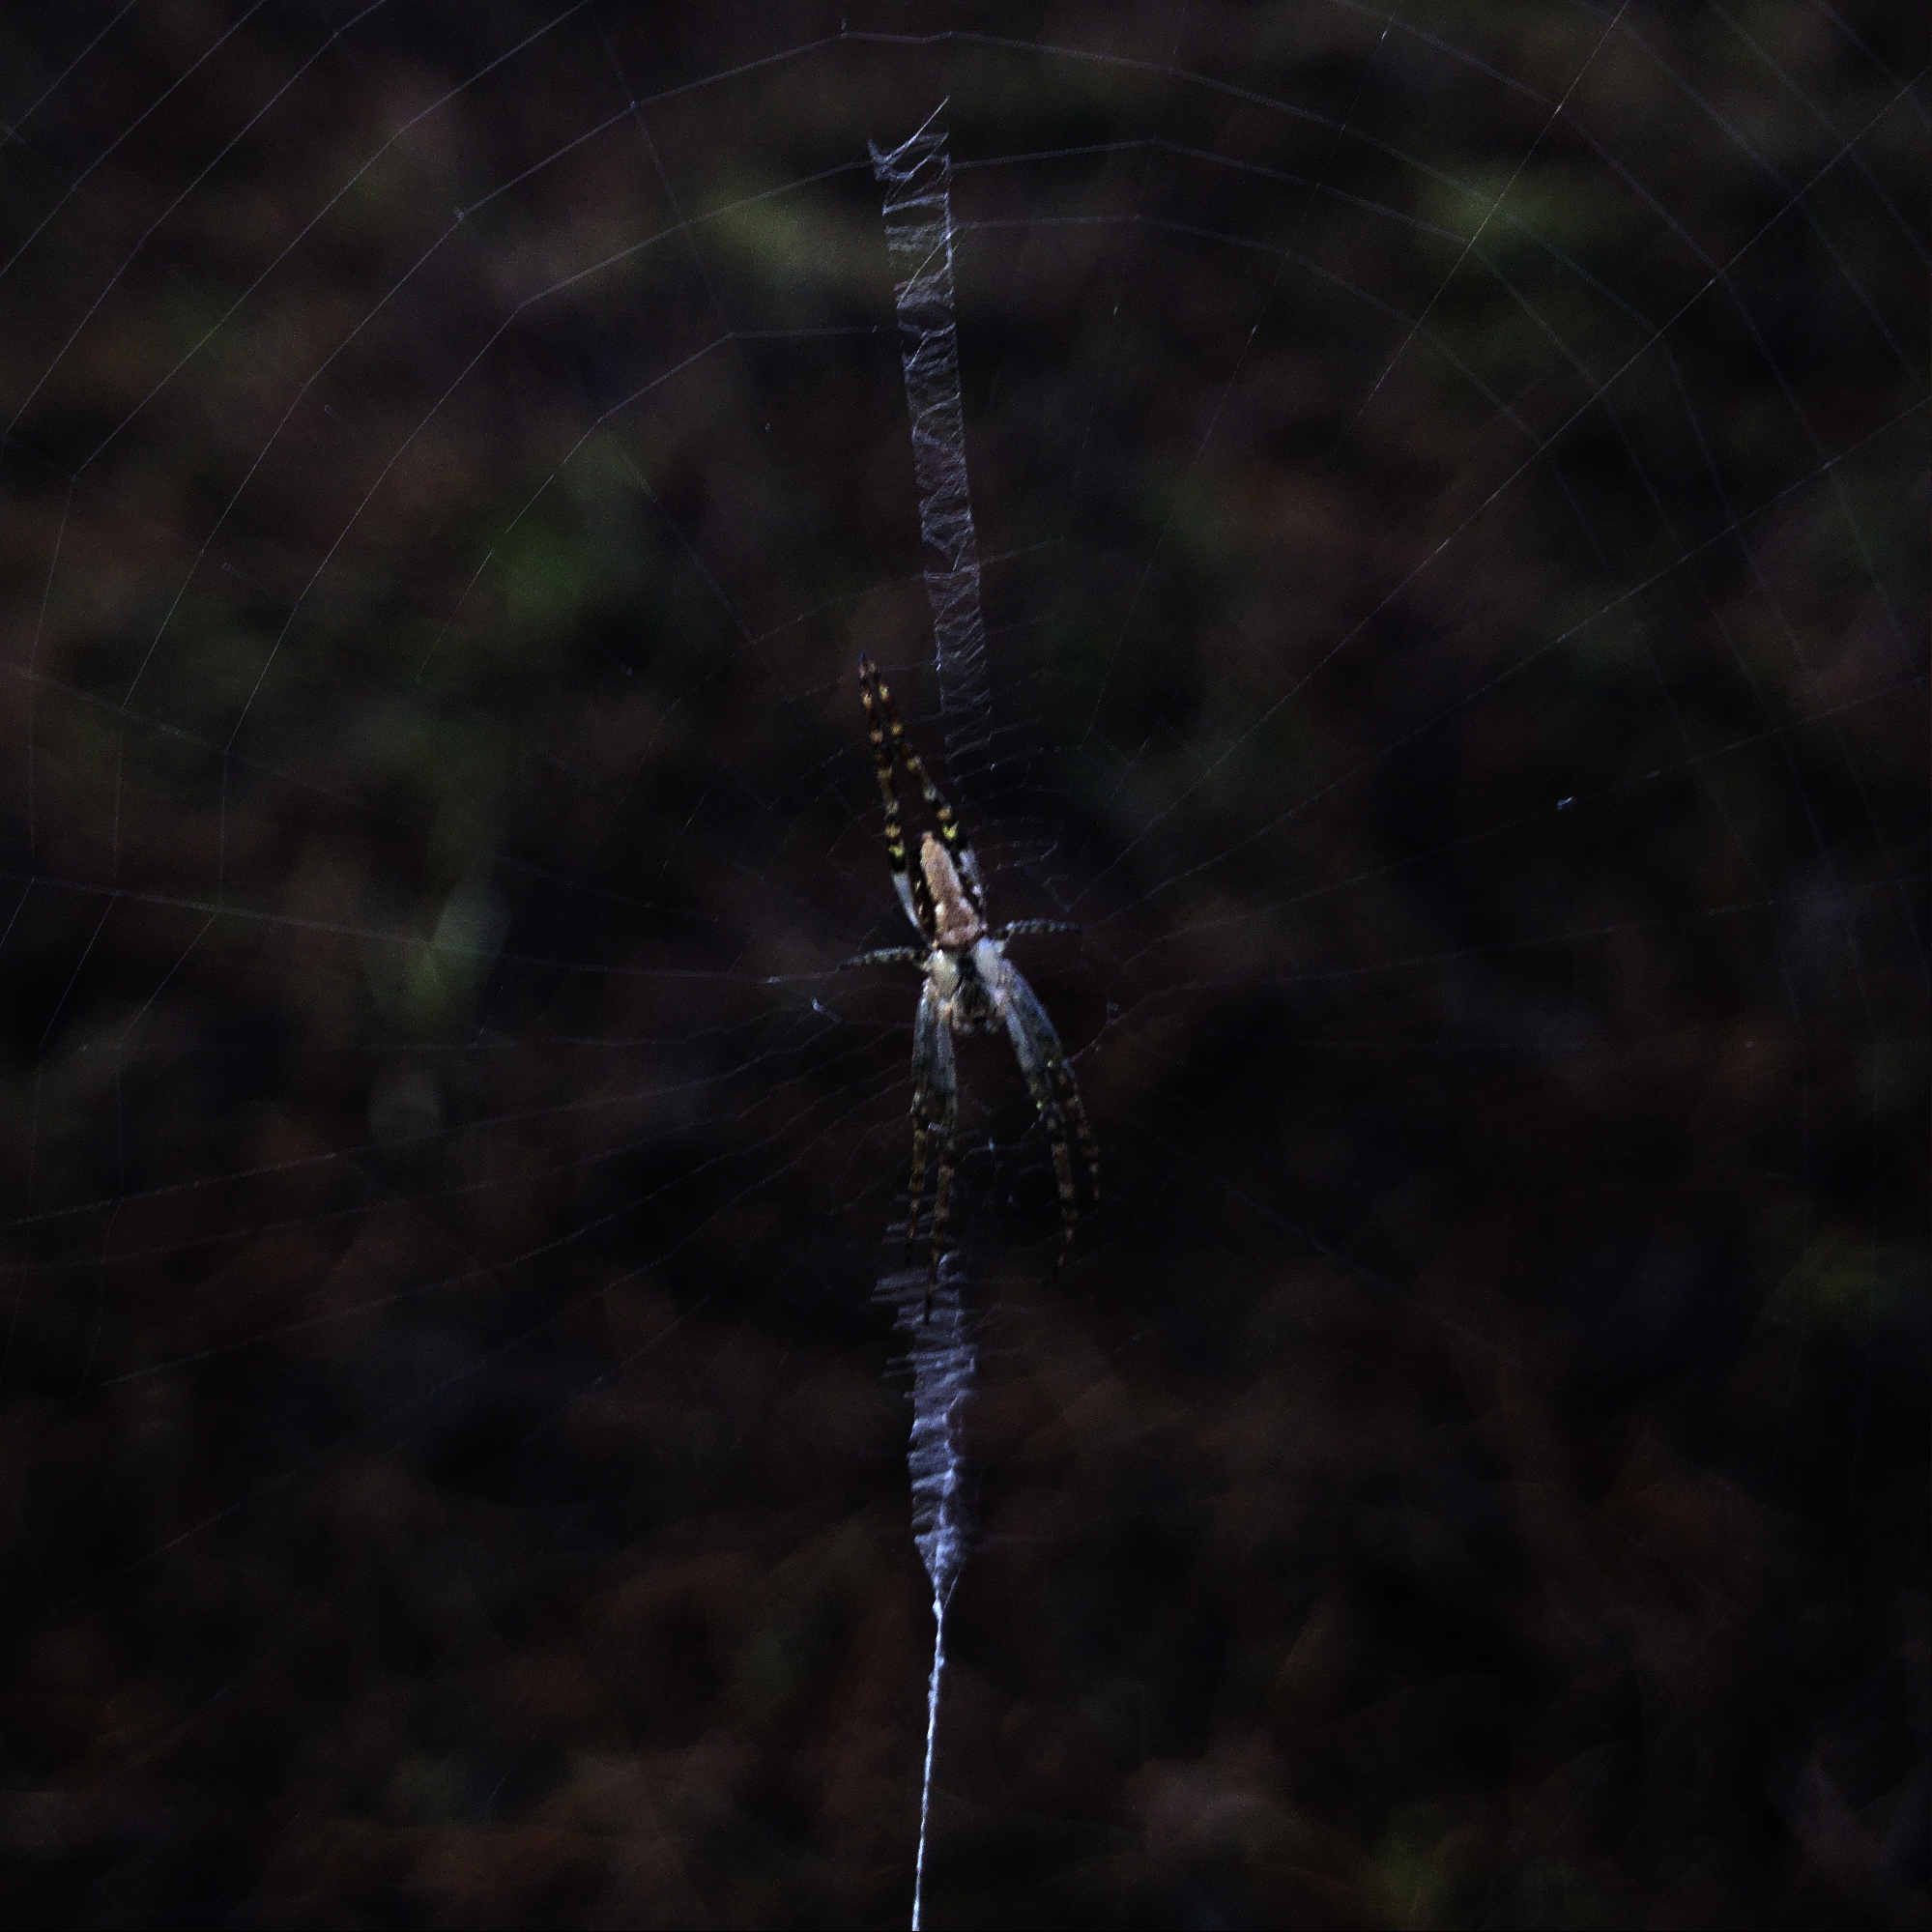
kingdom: Animalia
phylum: Arthropoda
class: Arachnida
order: Araneae
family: Araneidae
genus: Plebs
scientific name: Plebs bradleyi
